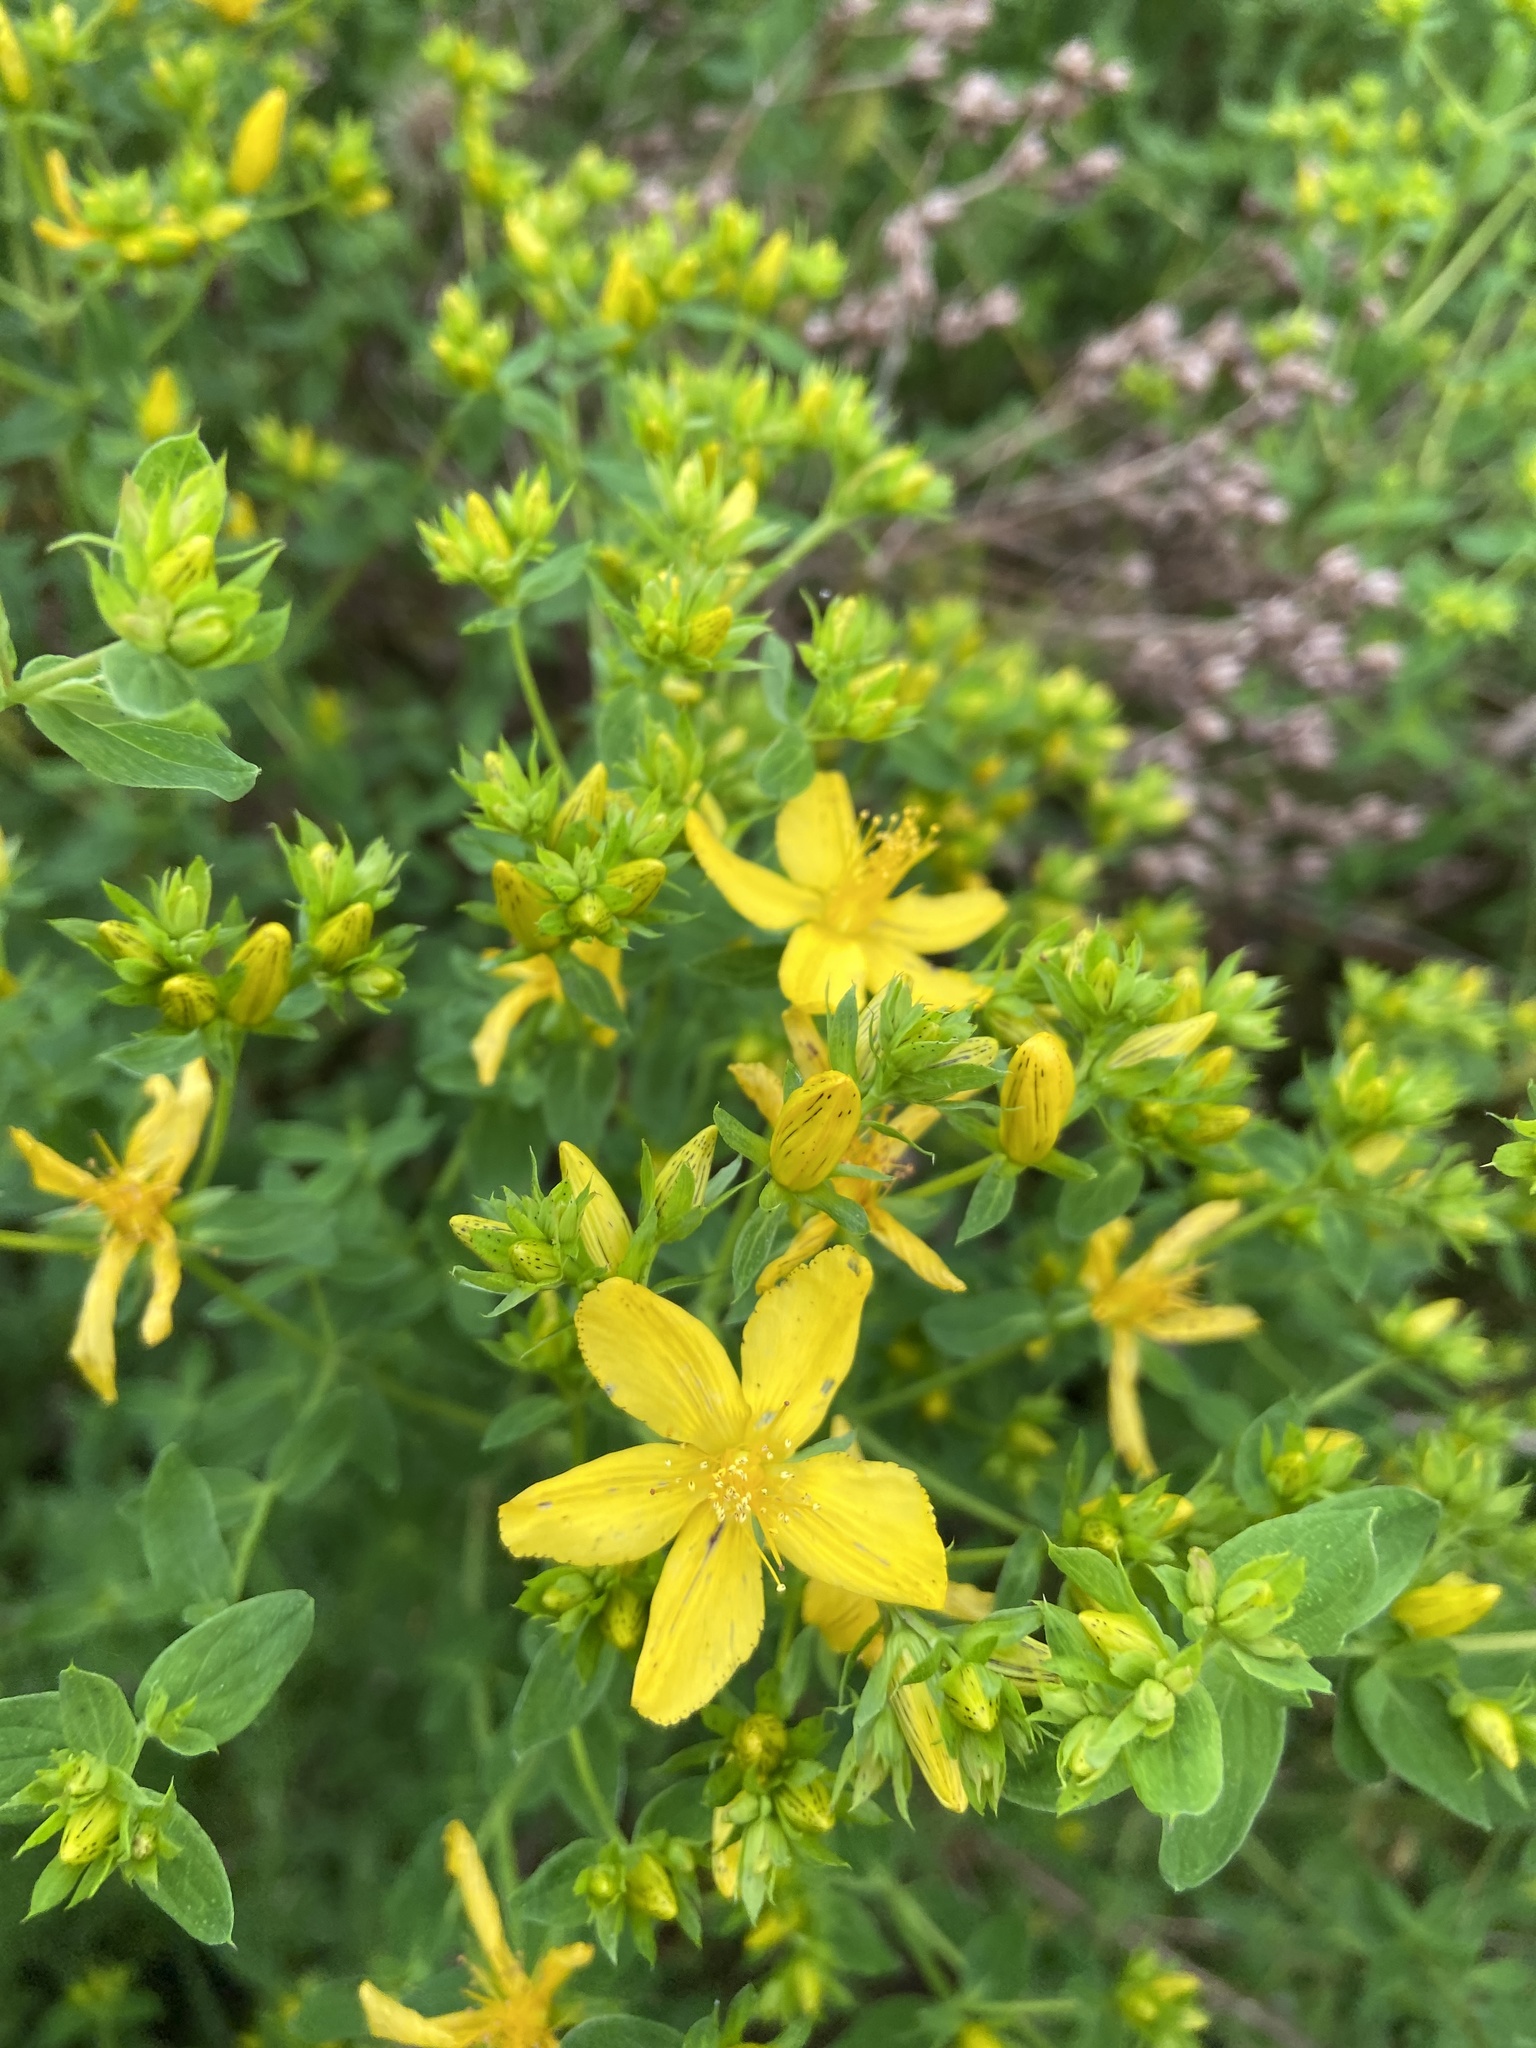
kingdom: Plantae
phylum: Tracheophyta
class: Magnoliopsida
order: Malpighiales
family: Hypericaceae
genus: Hypericum
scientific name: Hypericum perforatum
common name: Common st. johnswort
